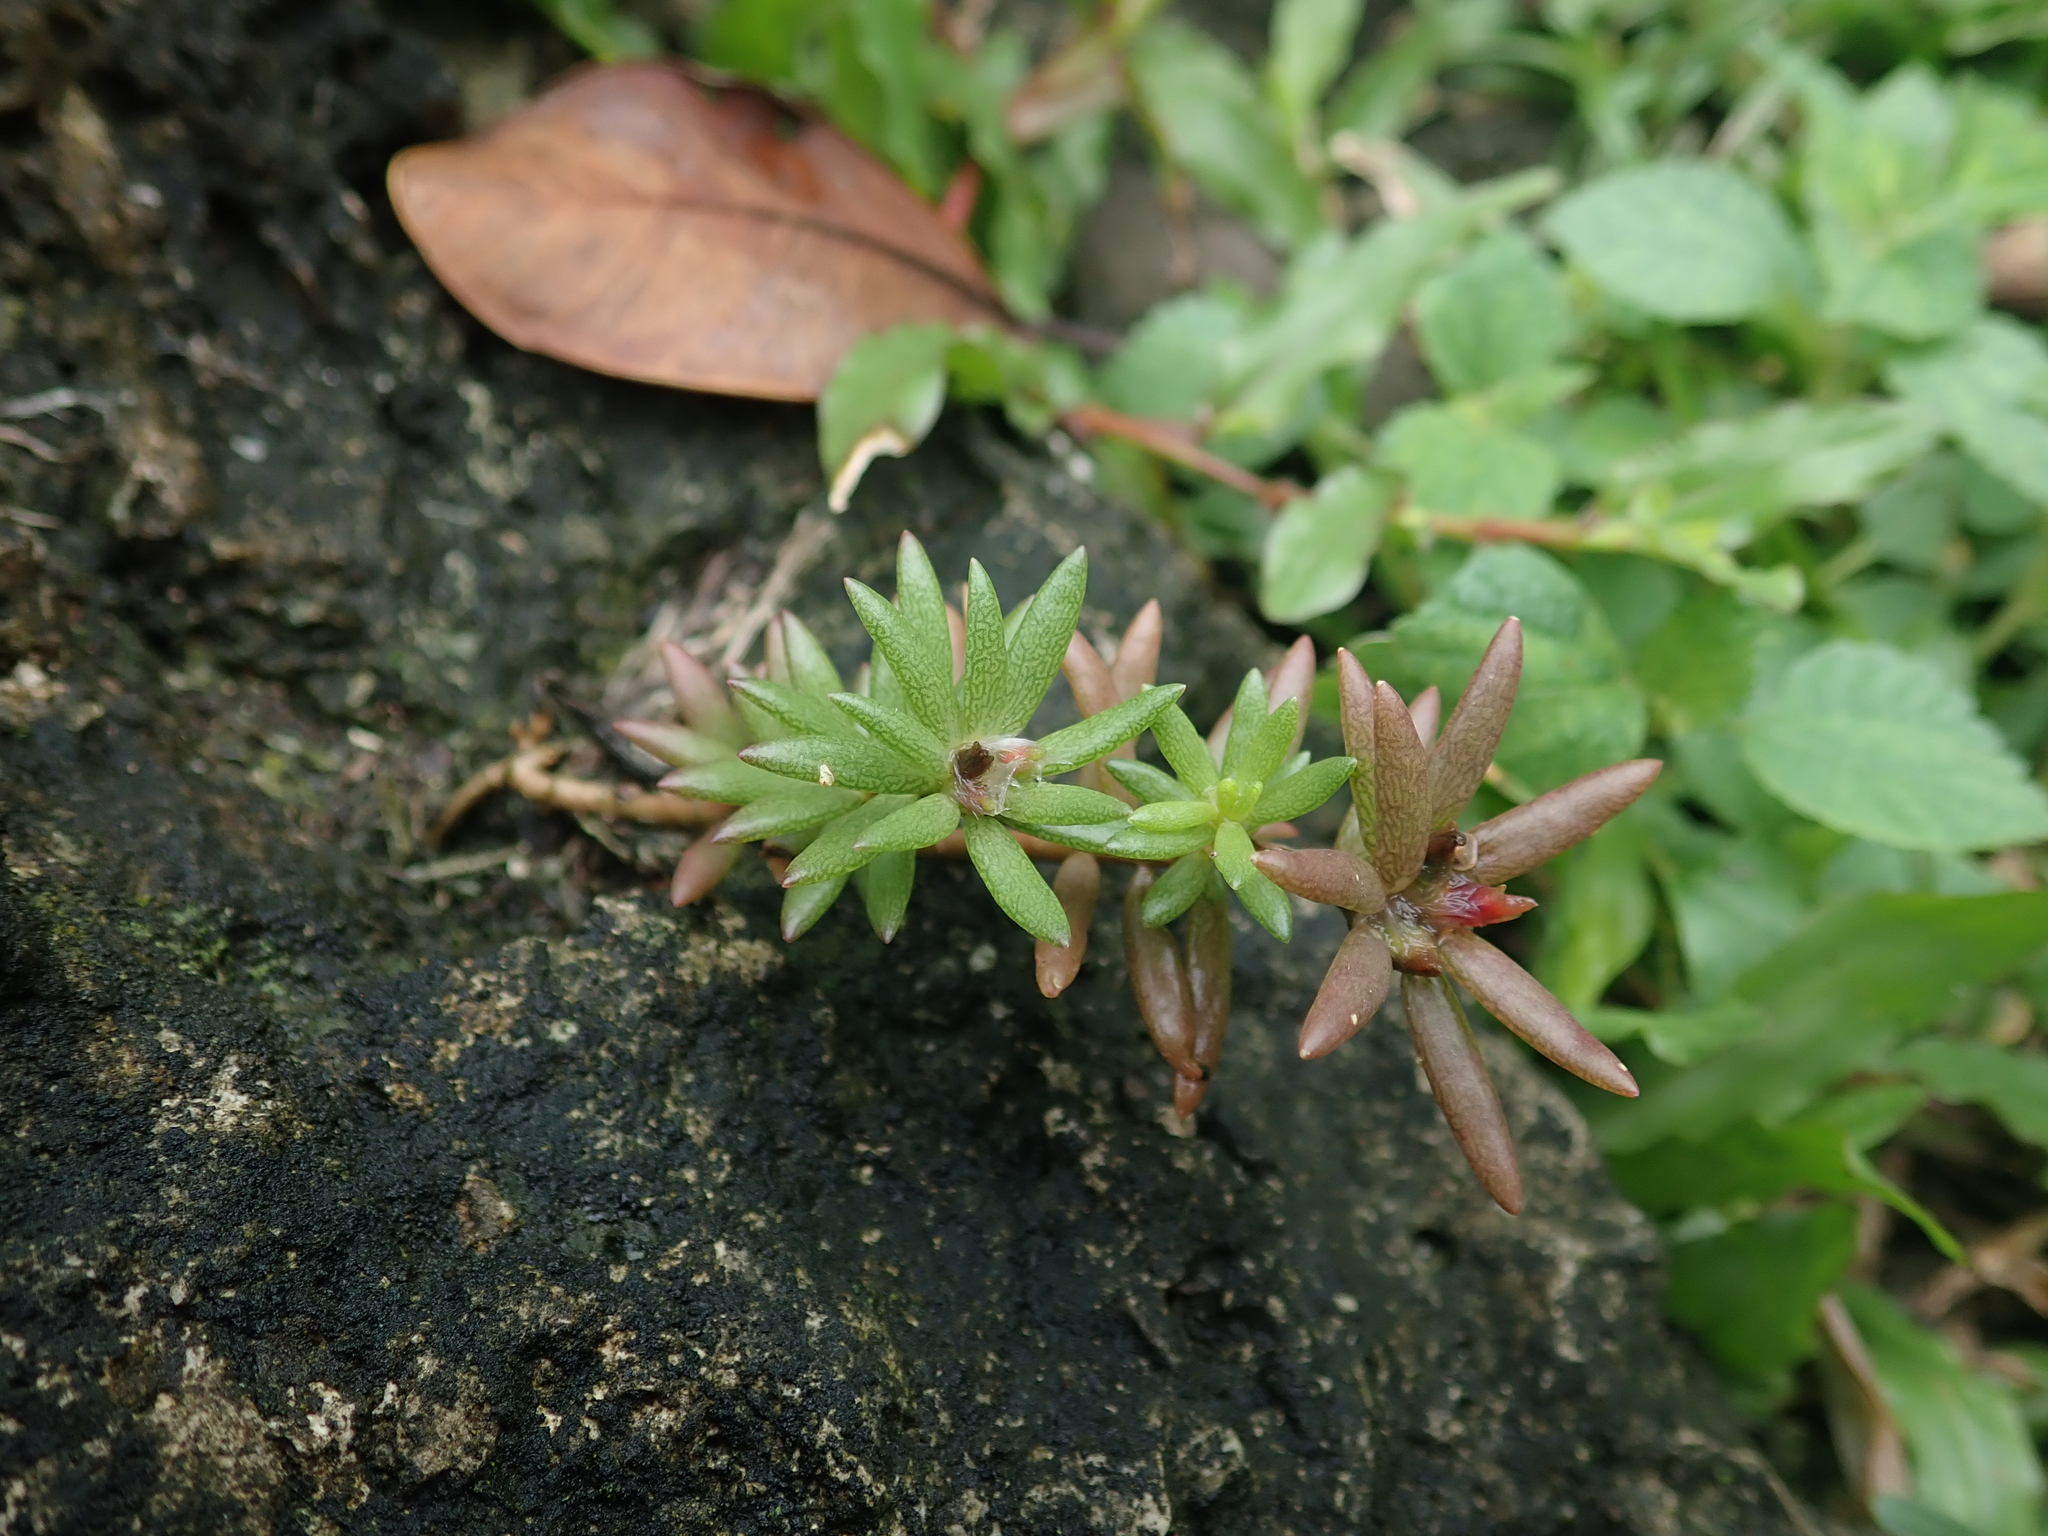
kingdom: Plantae
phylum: Tracheophyta
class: Magnoliopsida
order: Caryophyllales
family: Portulacaceae
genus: Portulaca
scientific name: Portulaca pilosa
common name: Kiss me quick
